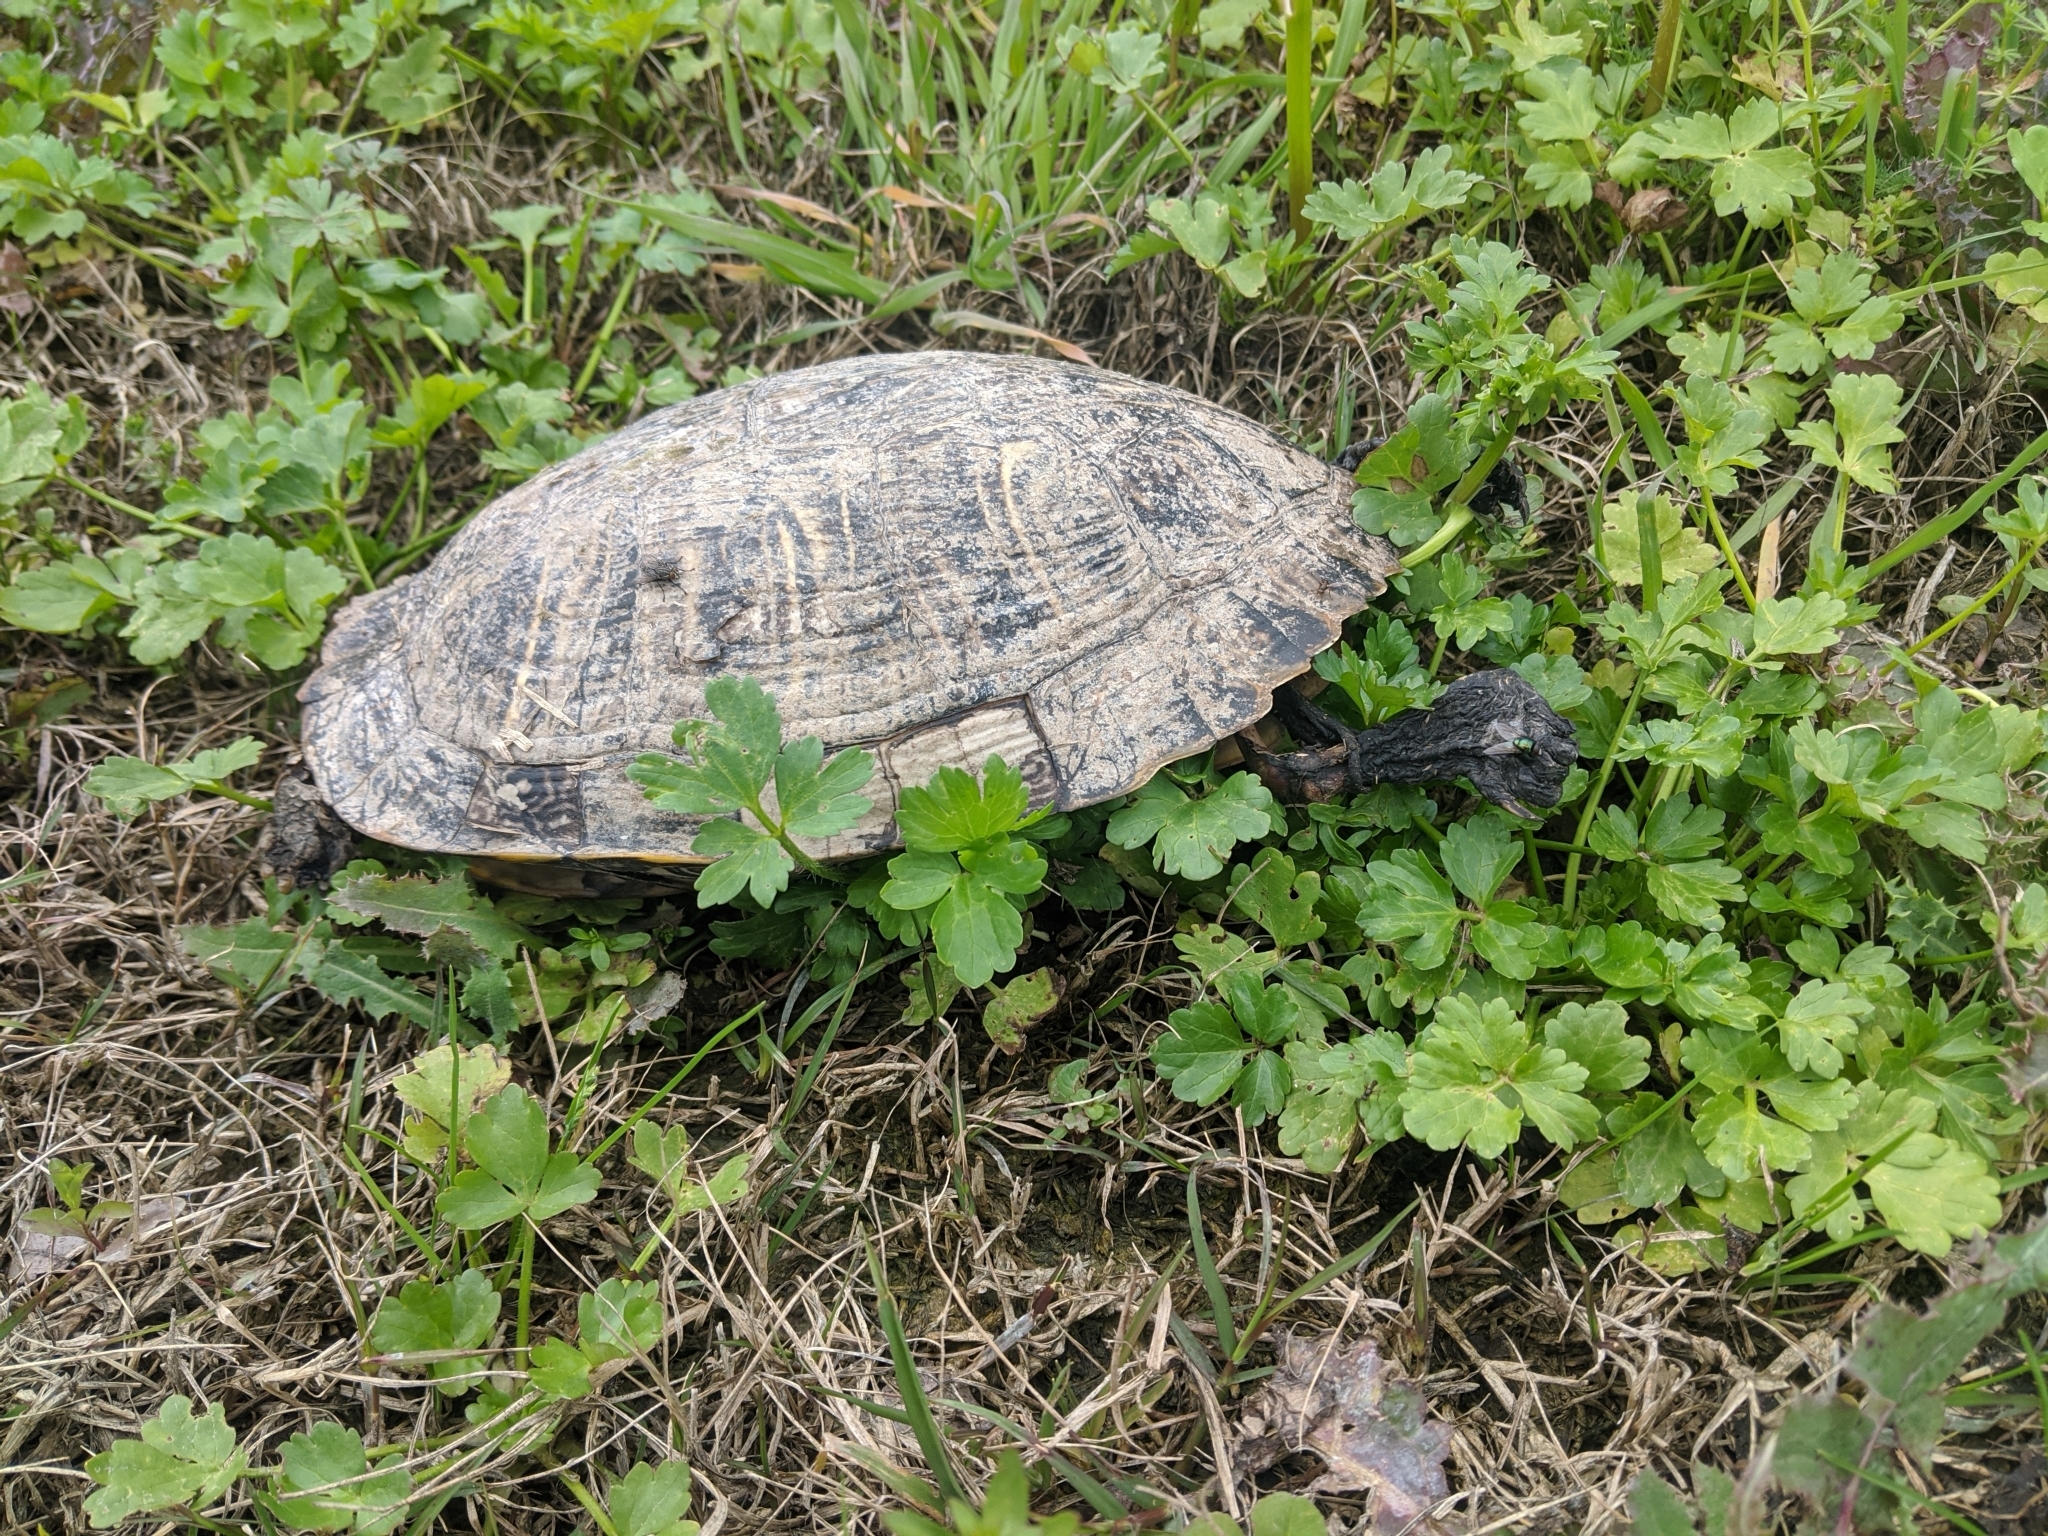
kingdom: Animalia
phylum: Chordata
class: Testudines
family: Emydidae
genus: Trachemys
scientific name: Trachemys scripta
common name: Slider
